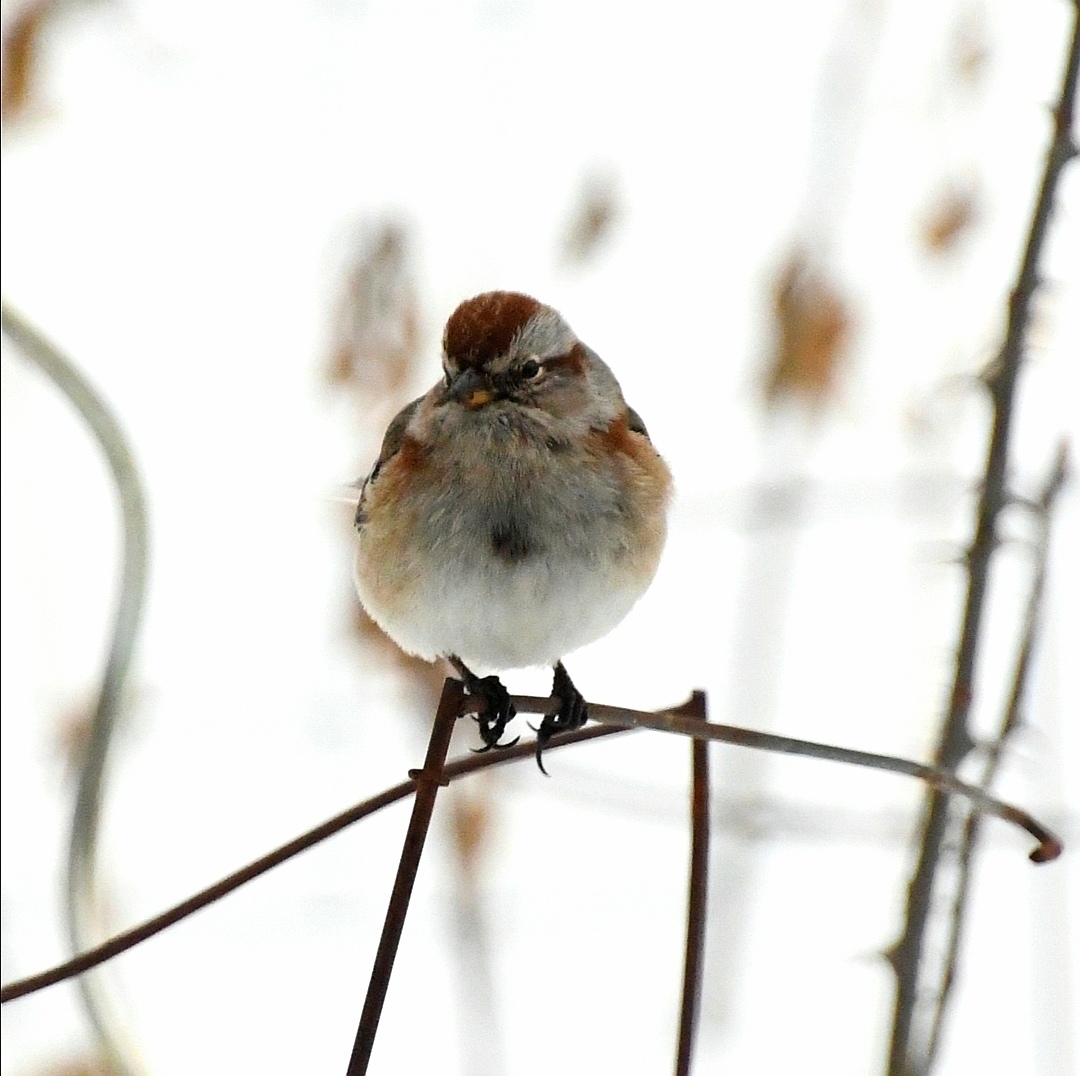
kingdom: Animalia
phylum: Chordata
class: Aves
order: Passeriformes
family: Passerellidae
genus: Spizelloides
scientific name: Spizelloides arborea
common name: American tree sparrow
